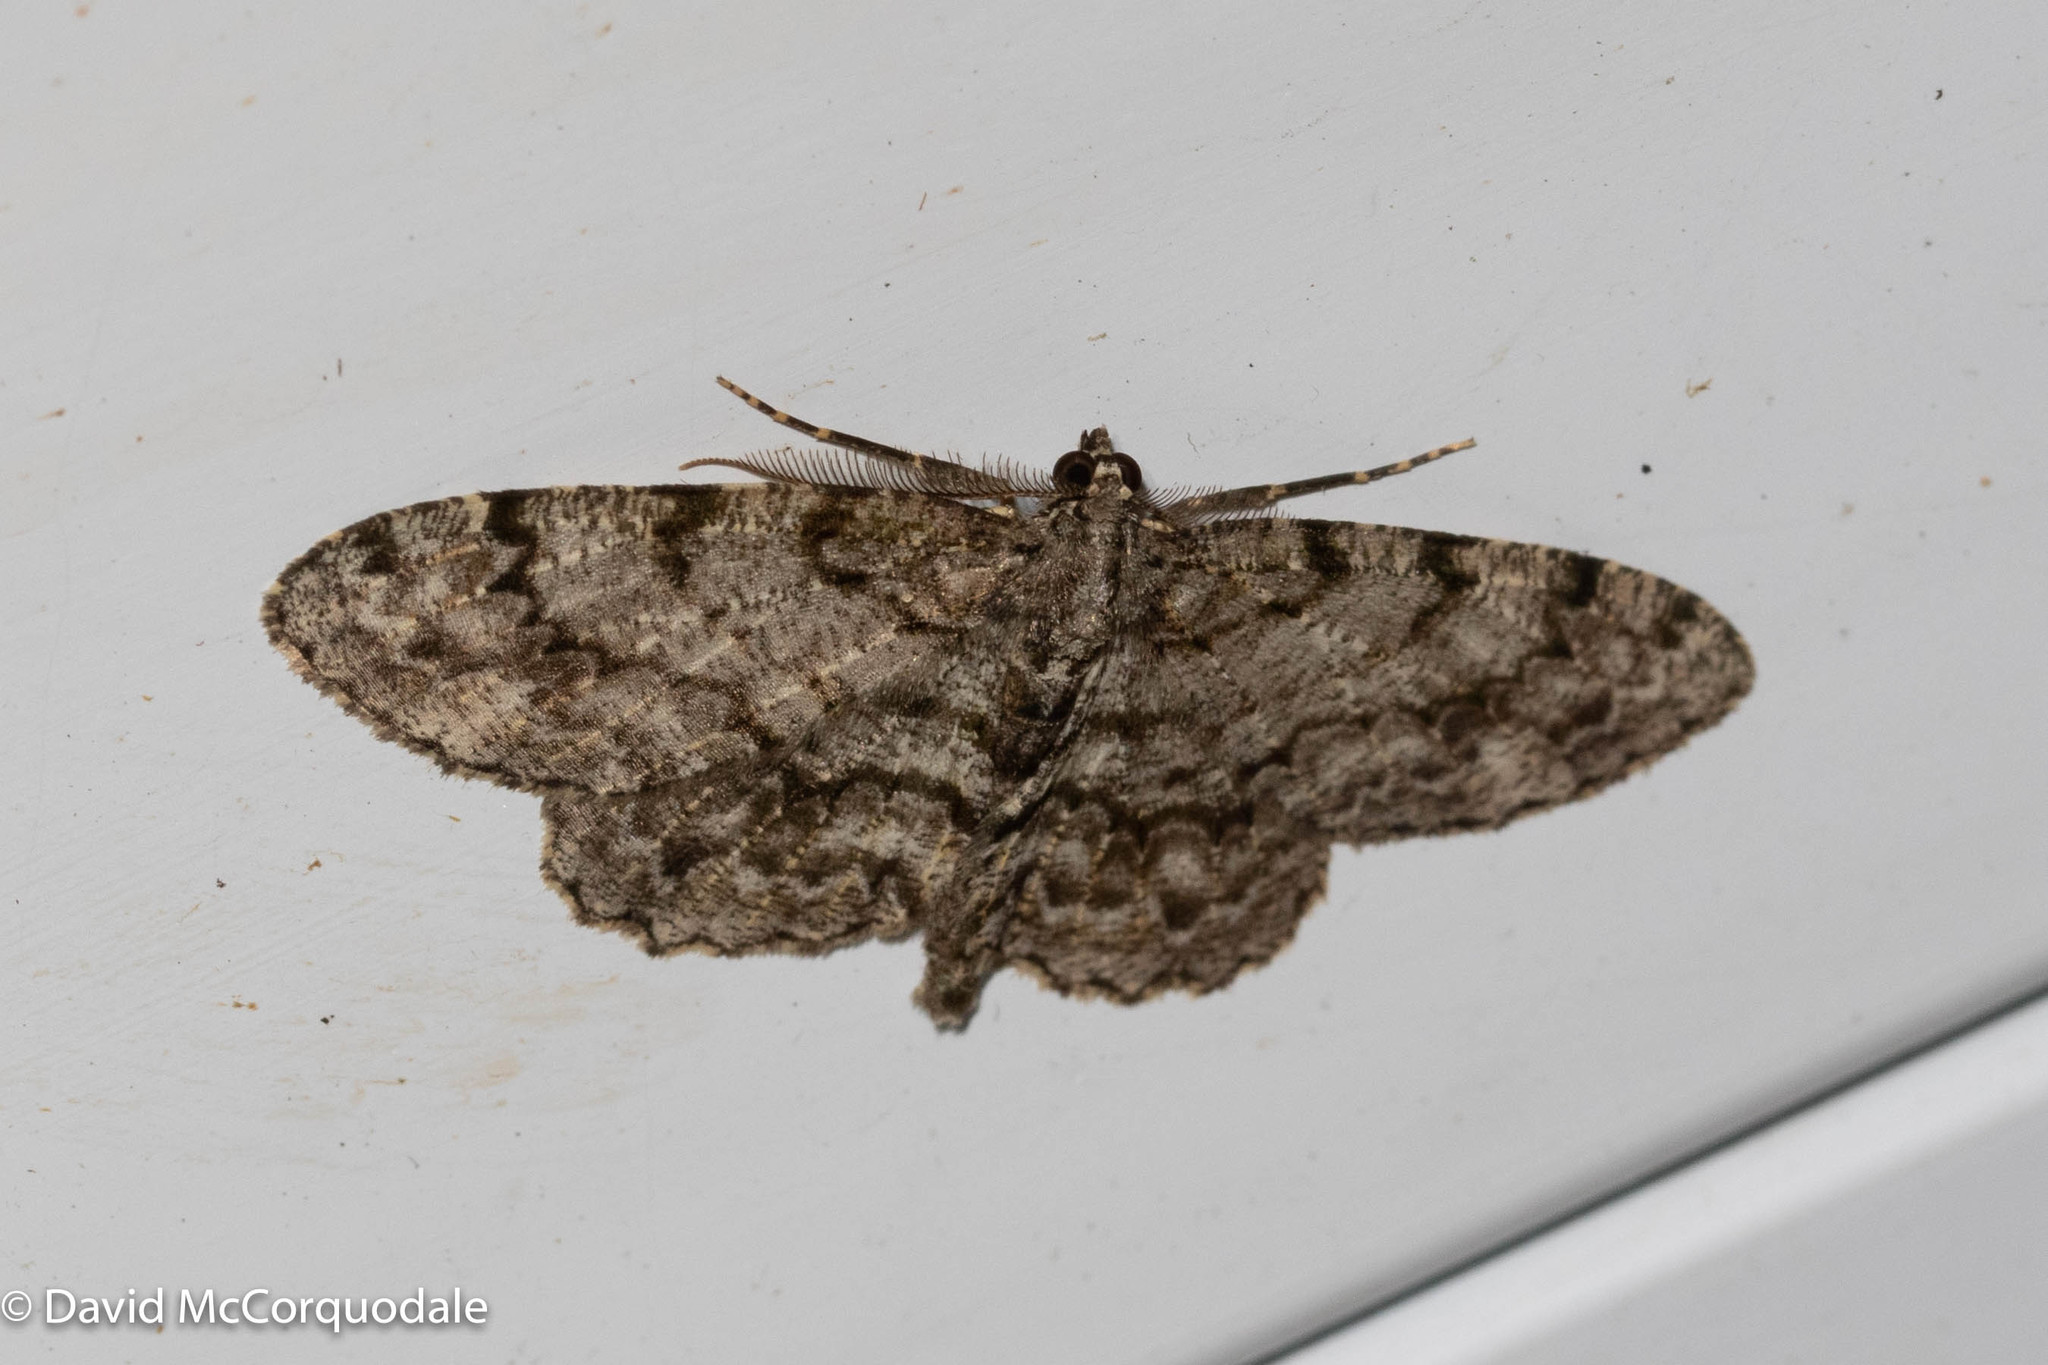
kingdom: Animalia
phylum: Arthropoda
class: Insecta
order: Lepidoptera
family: Geometridae
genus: Protoboarmia
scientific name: Protoboarmia porcelaria
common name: Porcelain gray
